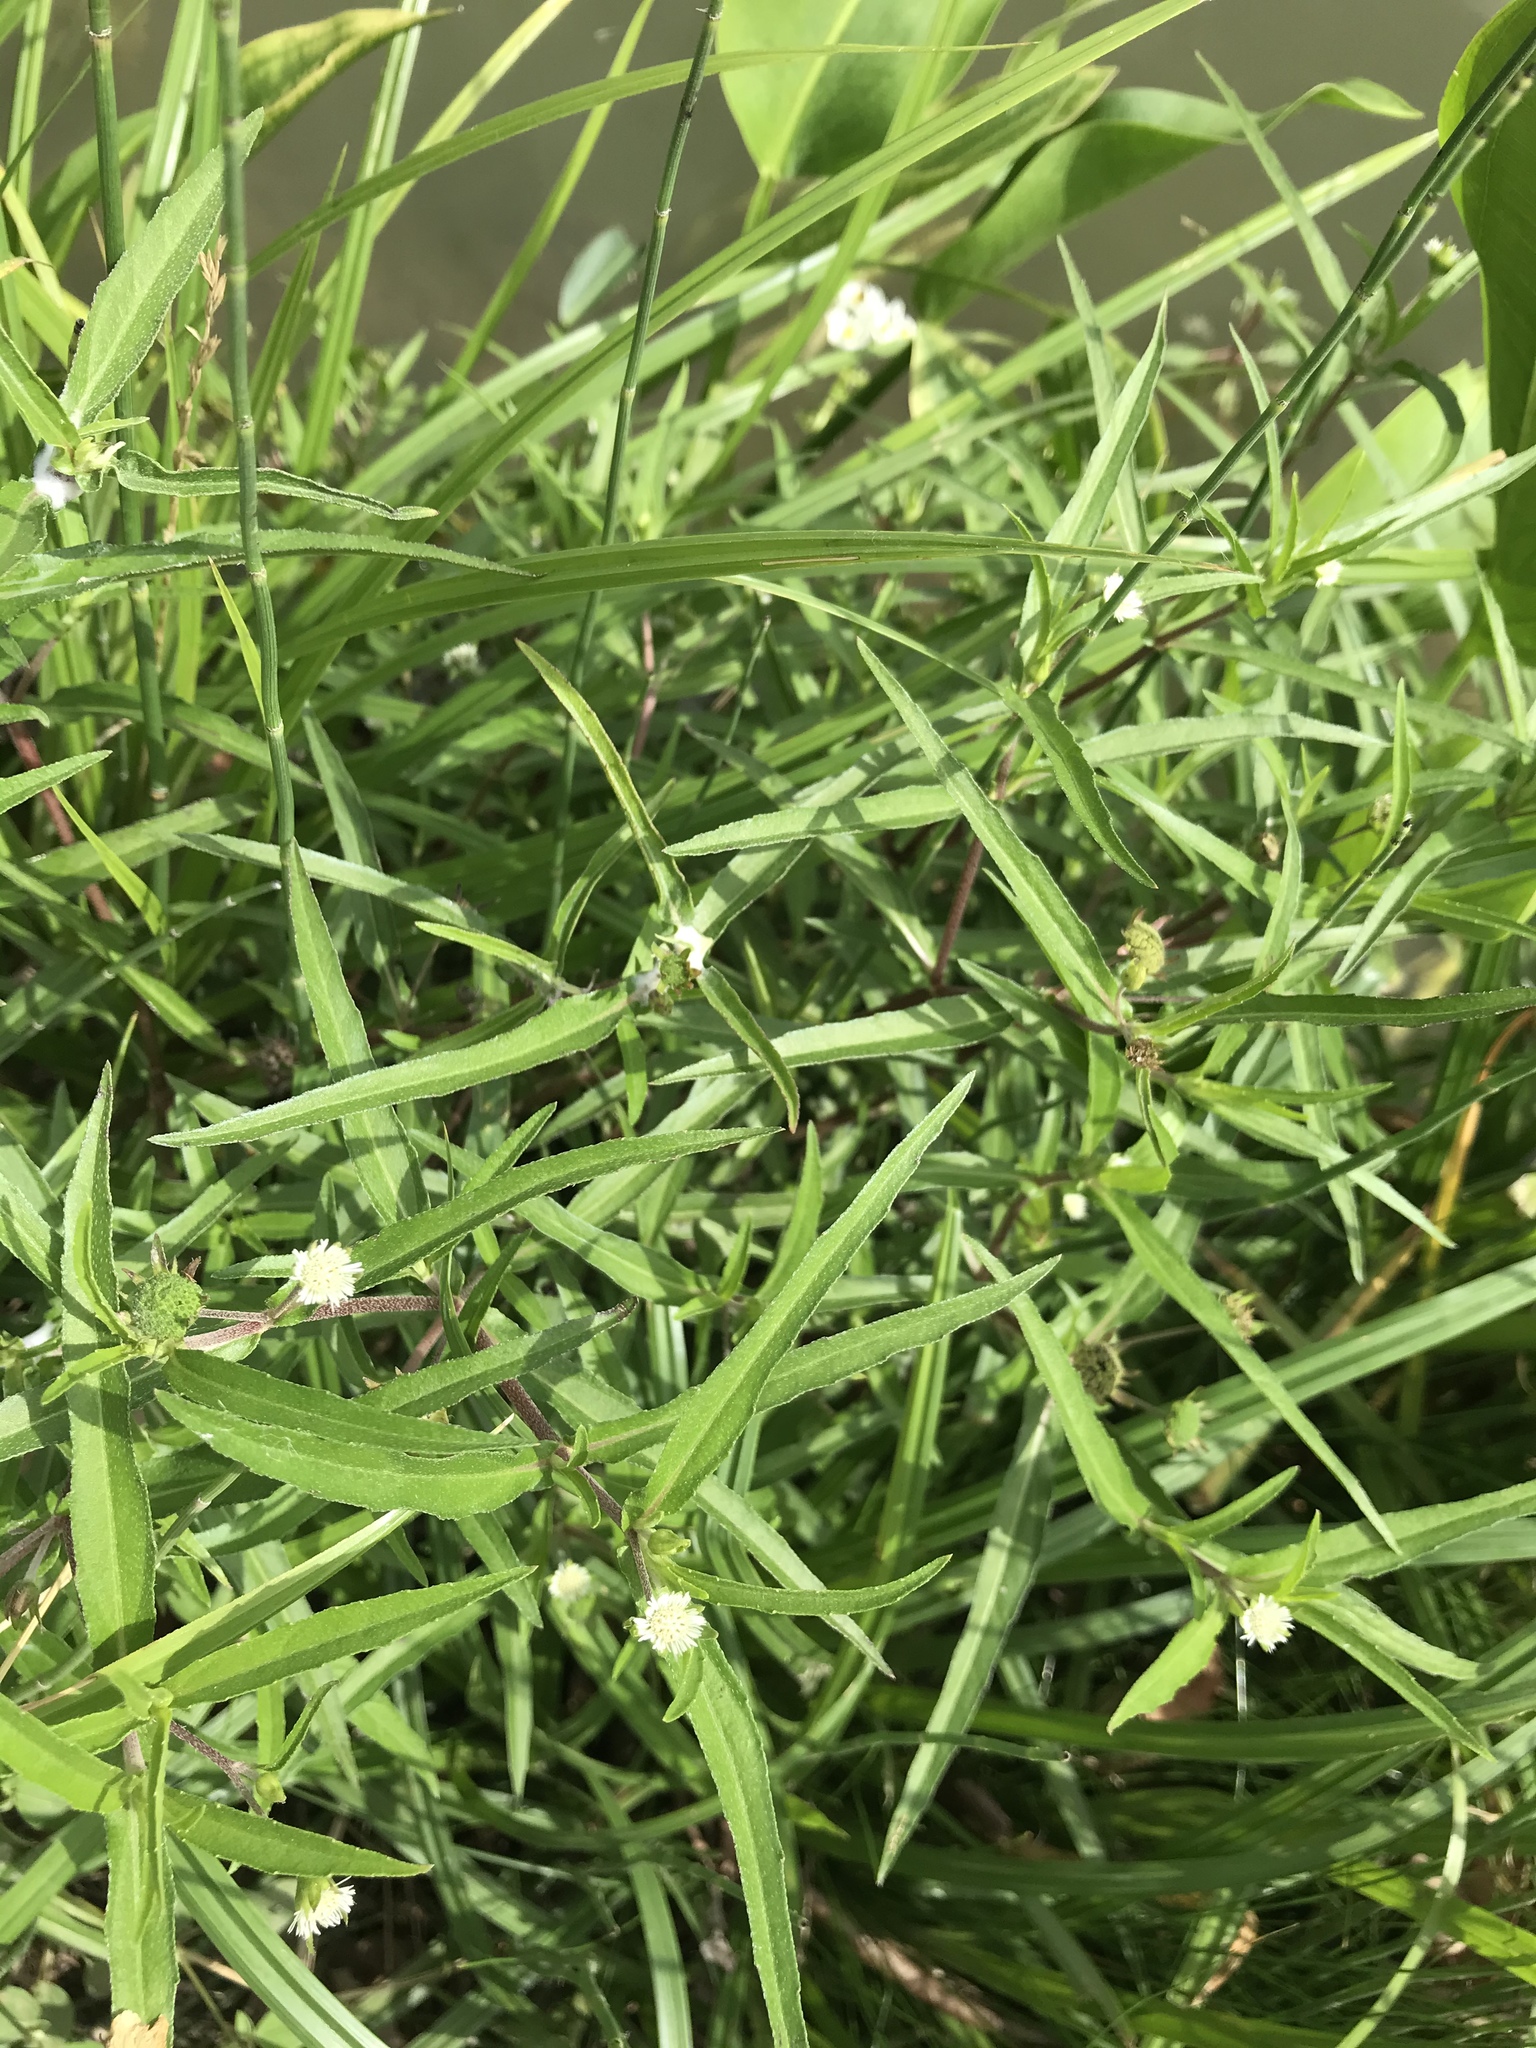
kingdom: Plantae
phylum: Tracheophyta
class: Magnoliopsida
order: Asterales
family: Asteraceae
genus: Eclipta
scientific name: Eclipta prostrata
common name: False daisy
